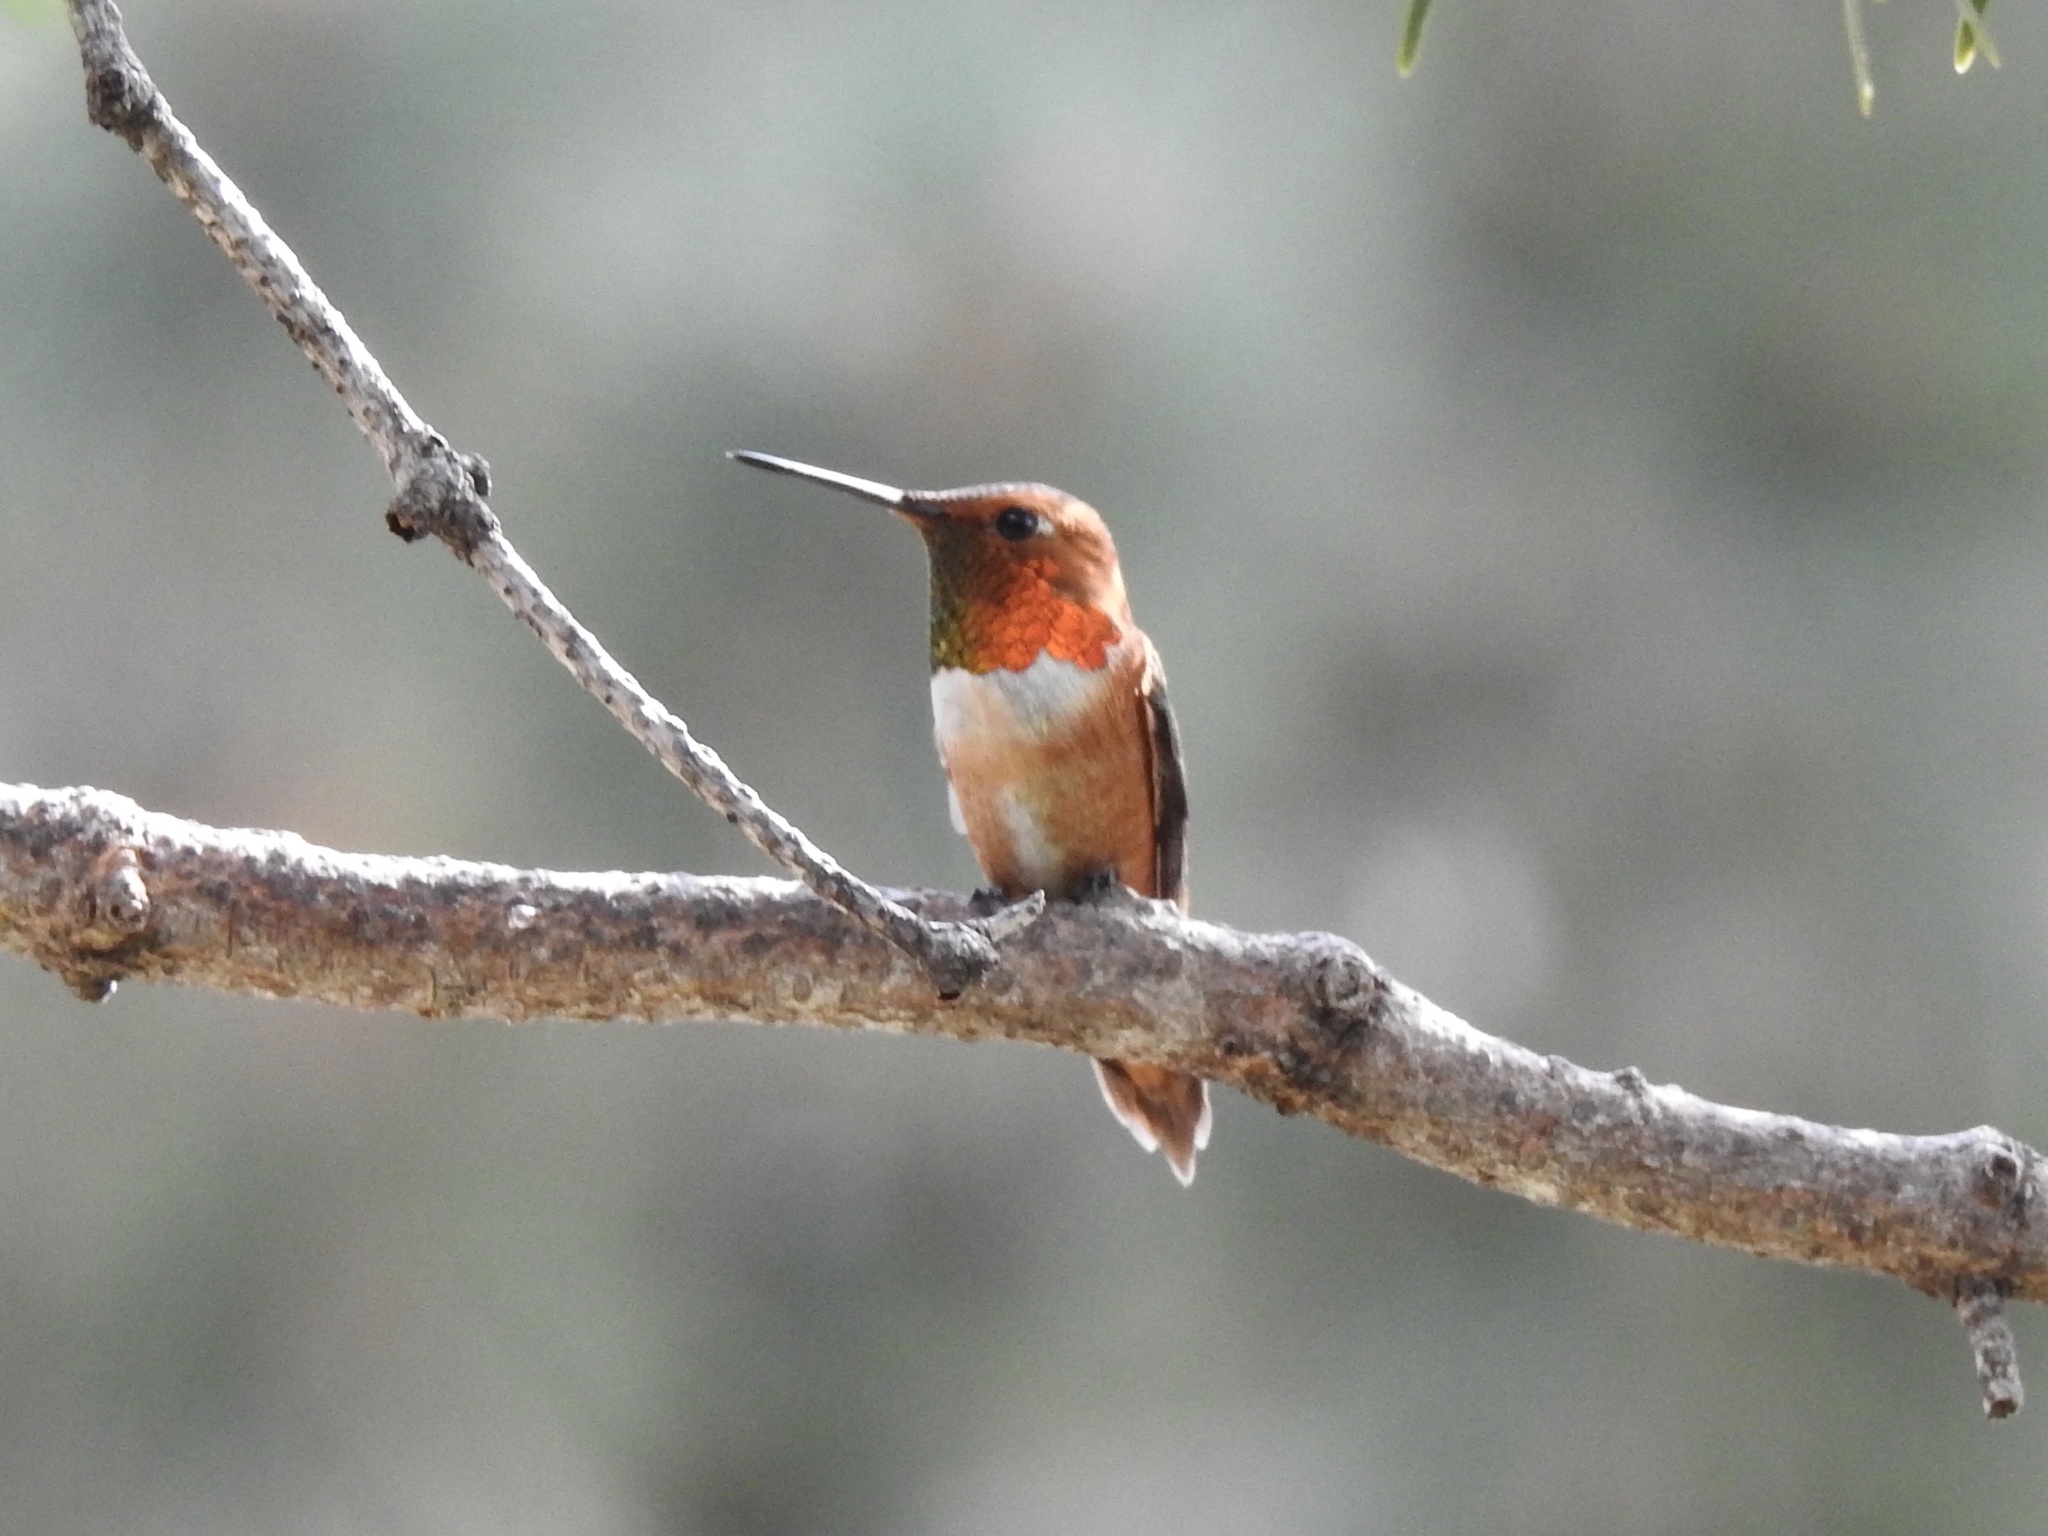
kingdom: Animalia
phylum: Chordata
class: Aves
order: Apodiformes
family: Trochilidae
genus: Selasphorus
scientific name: Selasphorus rufus
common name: Rufous hummingbird
